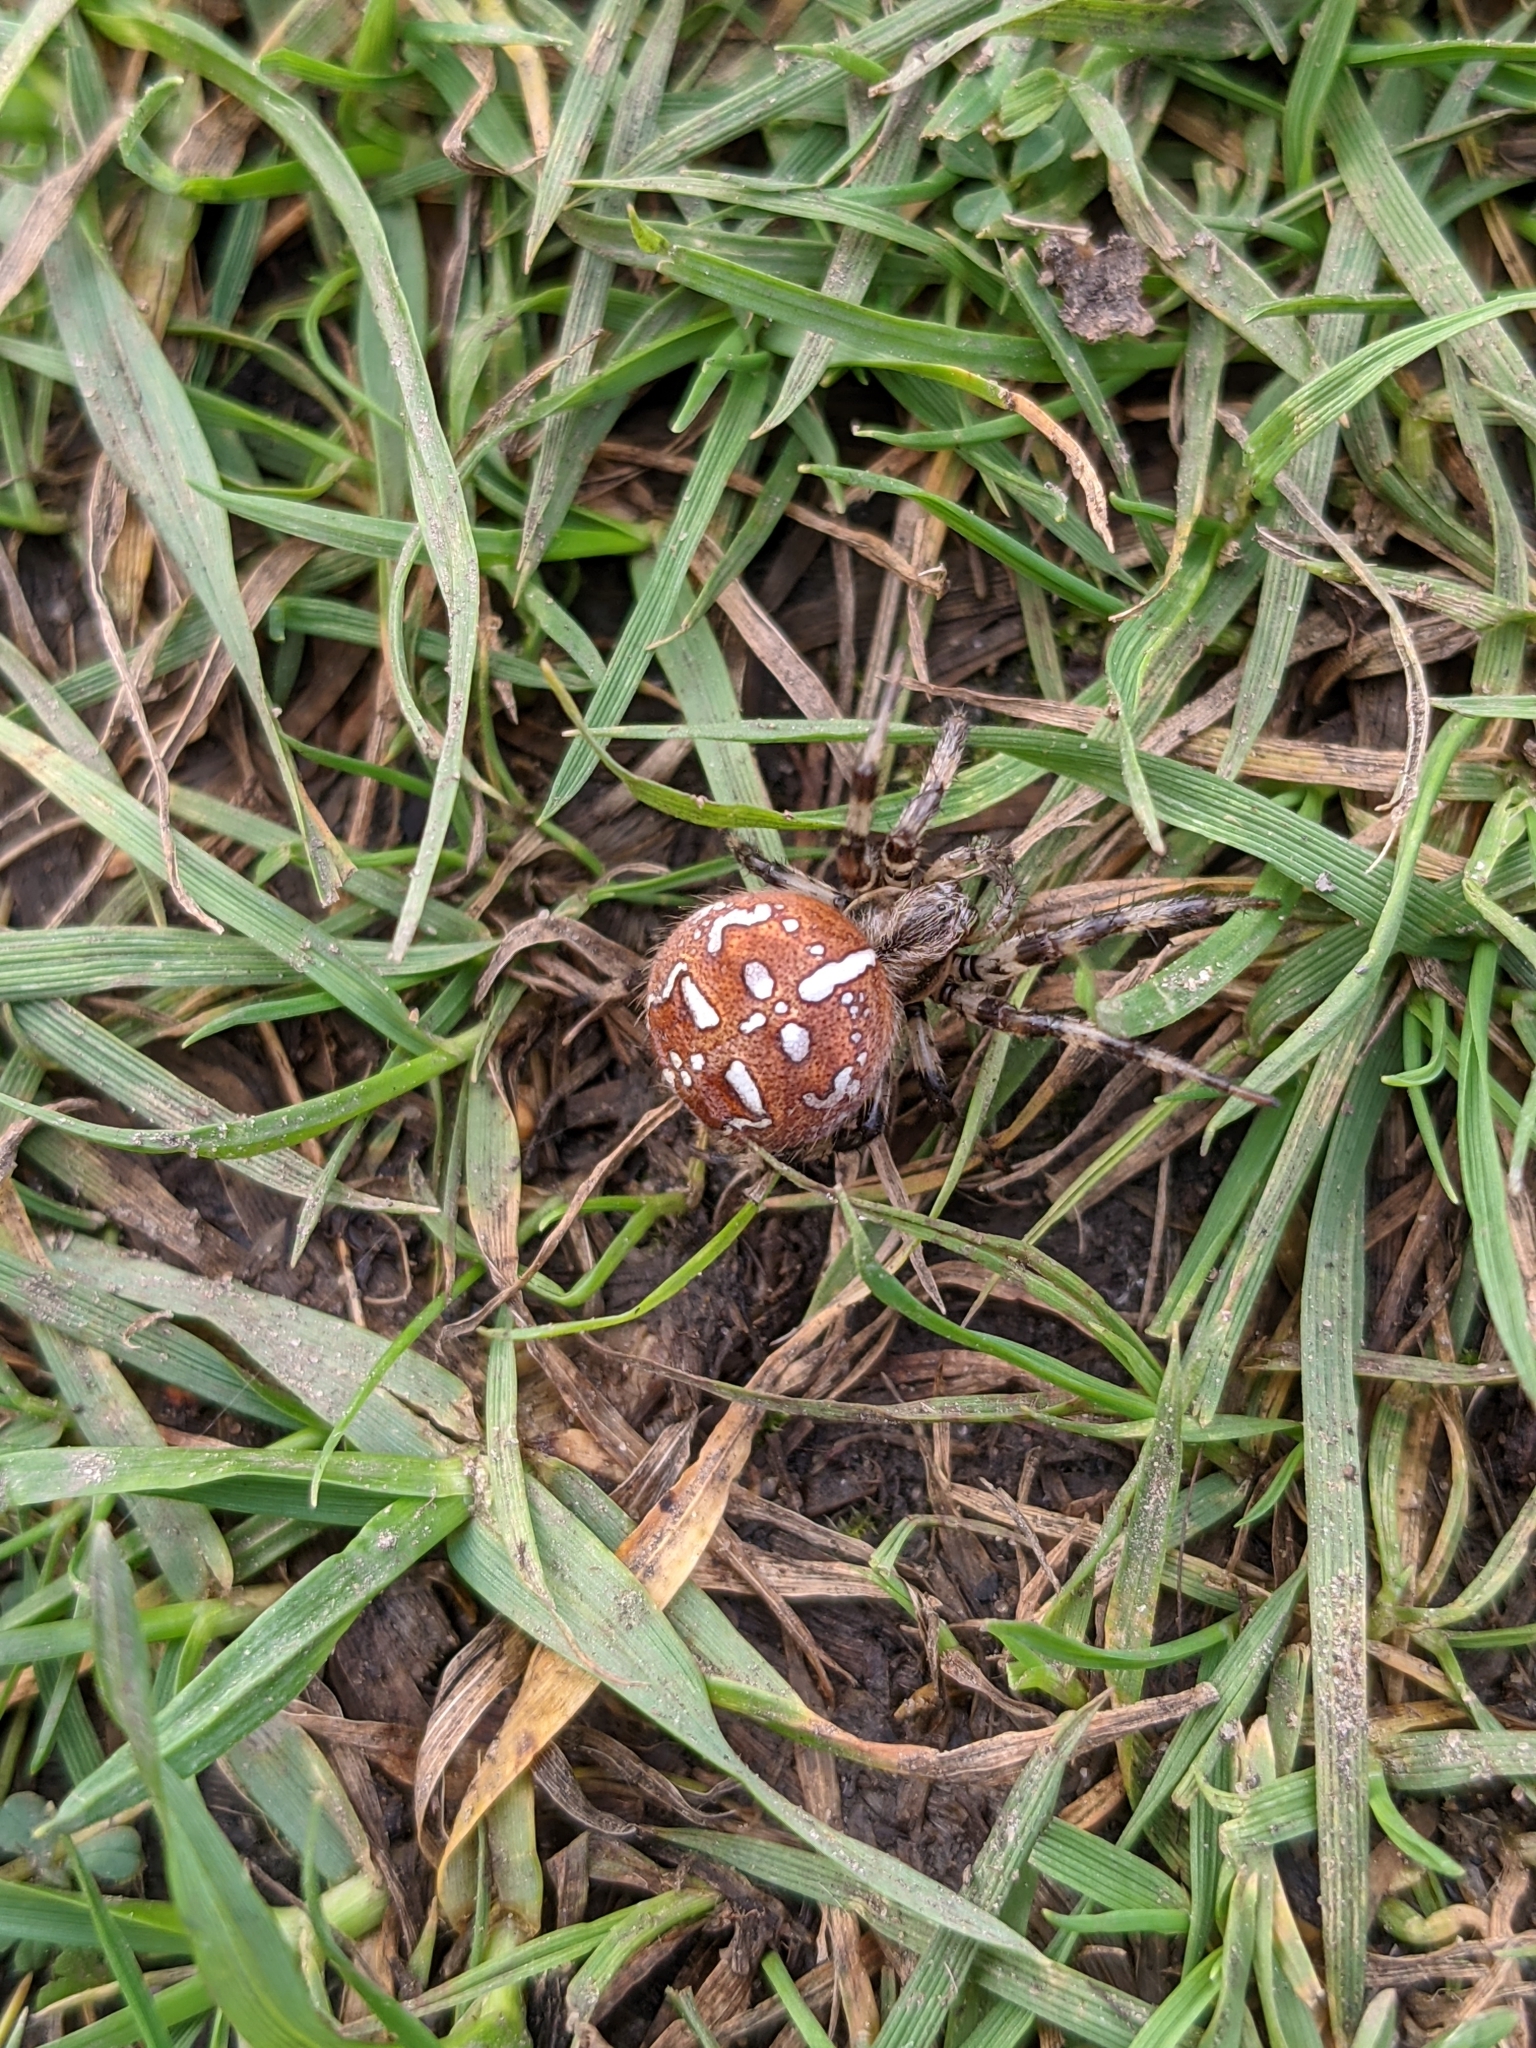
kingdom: Animalia
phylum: Arthropoda
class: Arachnida
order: Araneae
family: Araneidae
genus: Araneus
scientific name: Araneus quadratus
